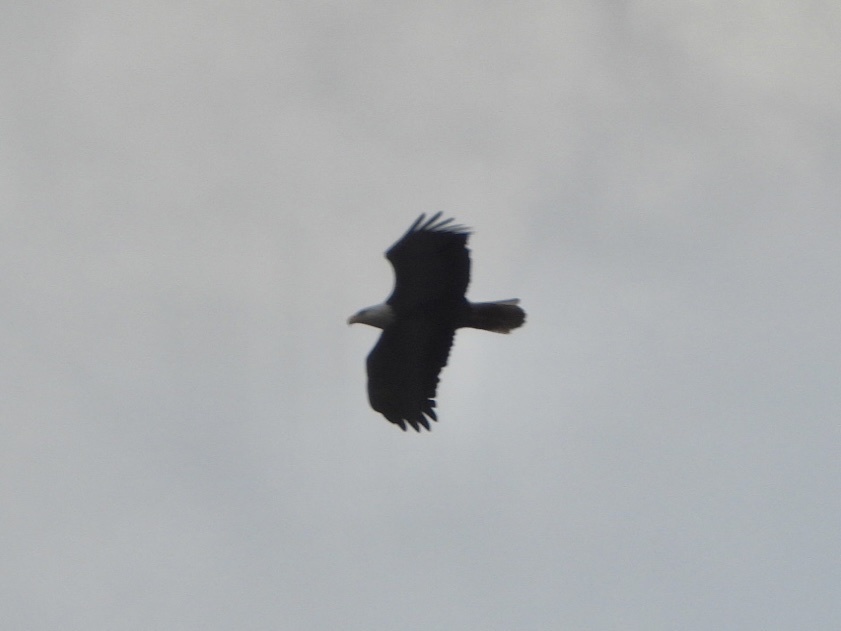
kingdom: Animalia
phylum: Chordata
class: Aves
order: Accipitriformes
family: Accipitridae
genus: Haliaeetus
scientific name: Haliaeetus leucocephalus
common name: Bald eagle
